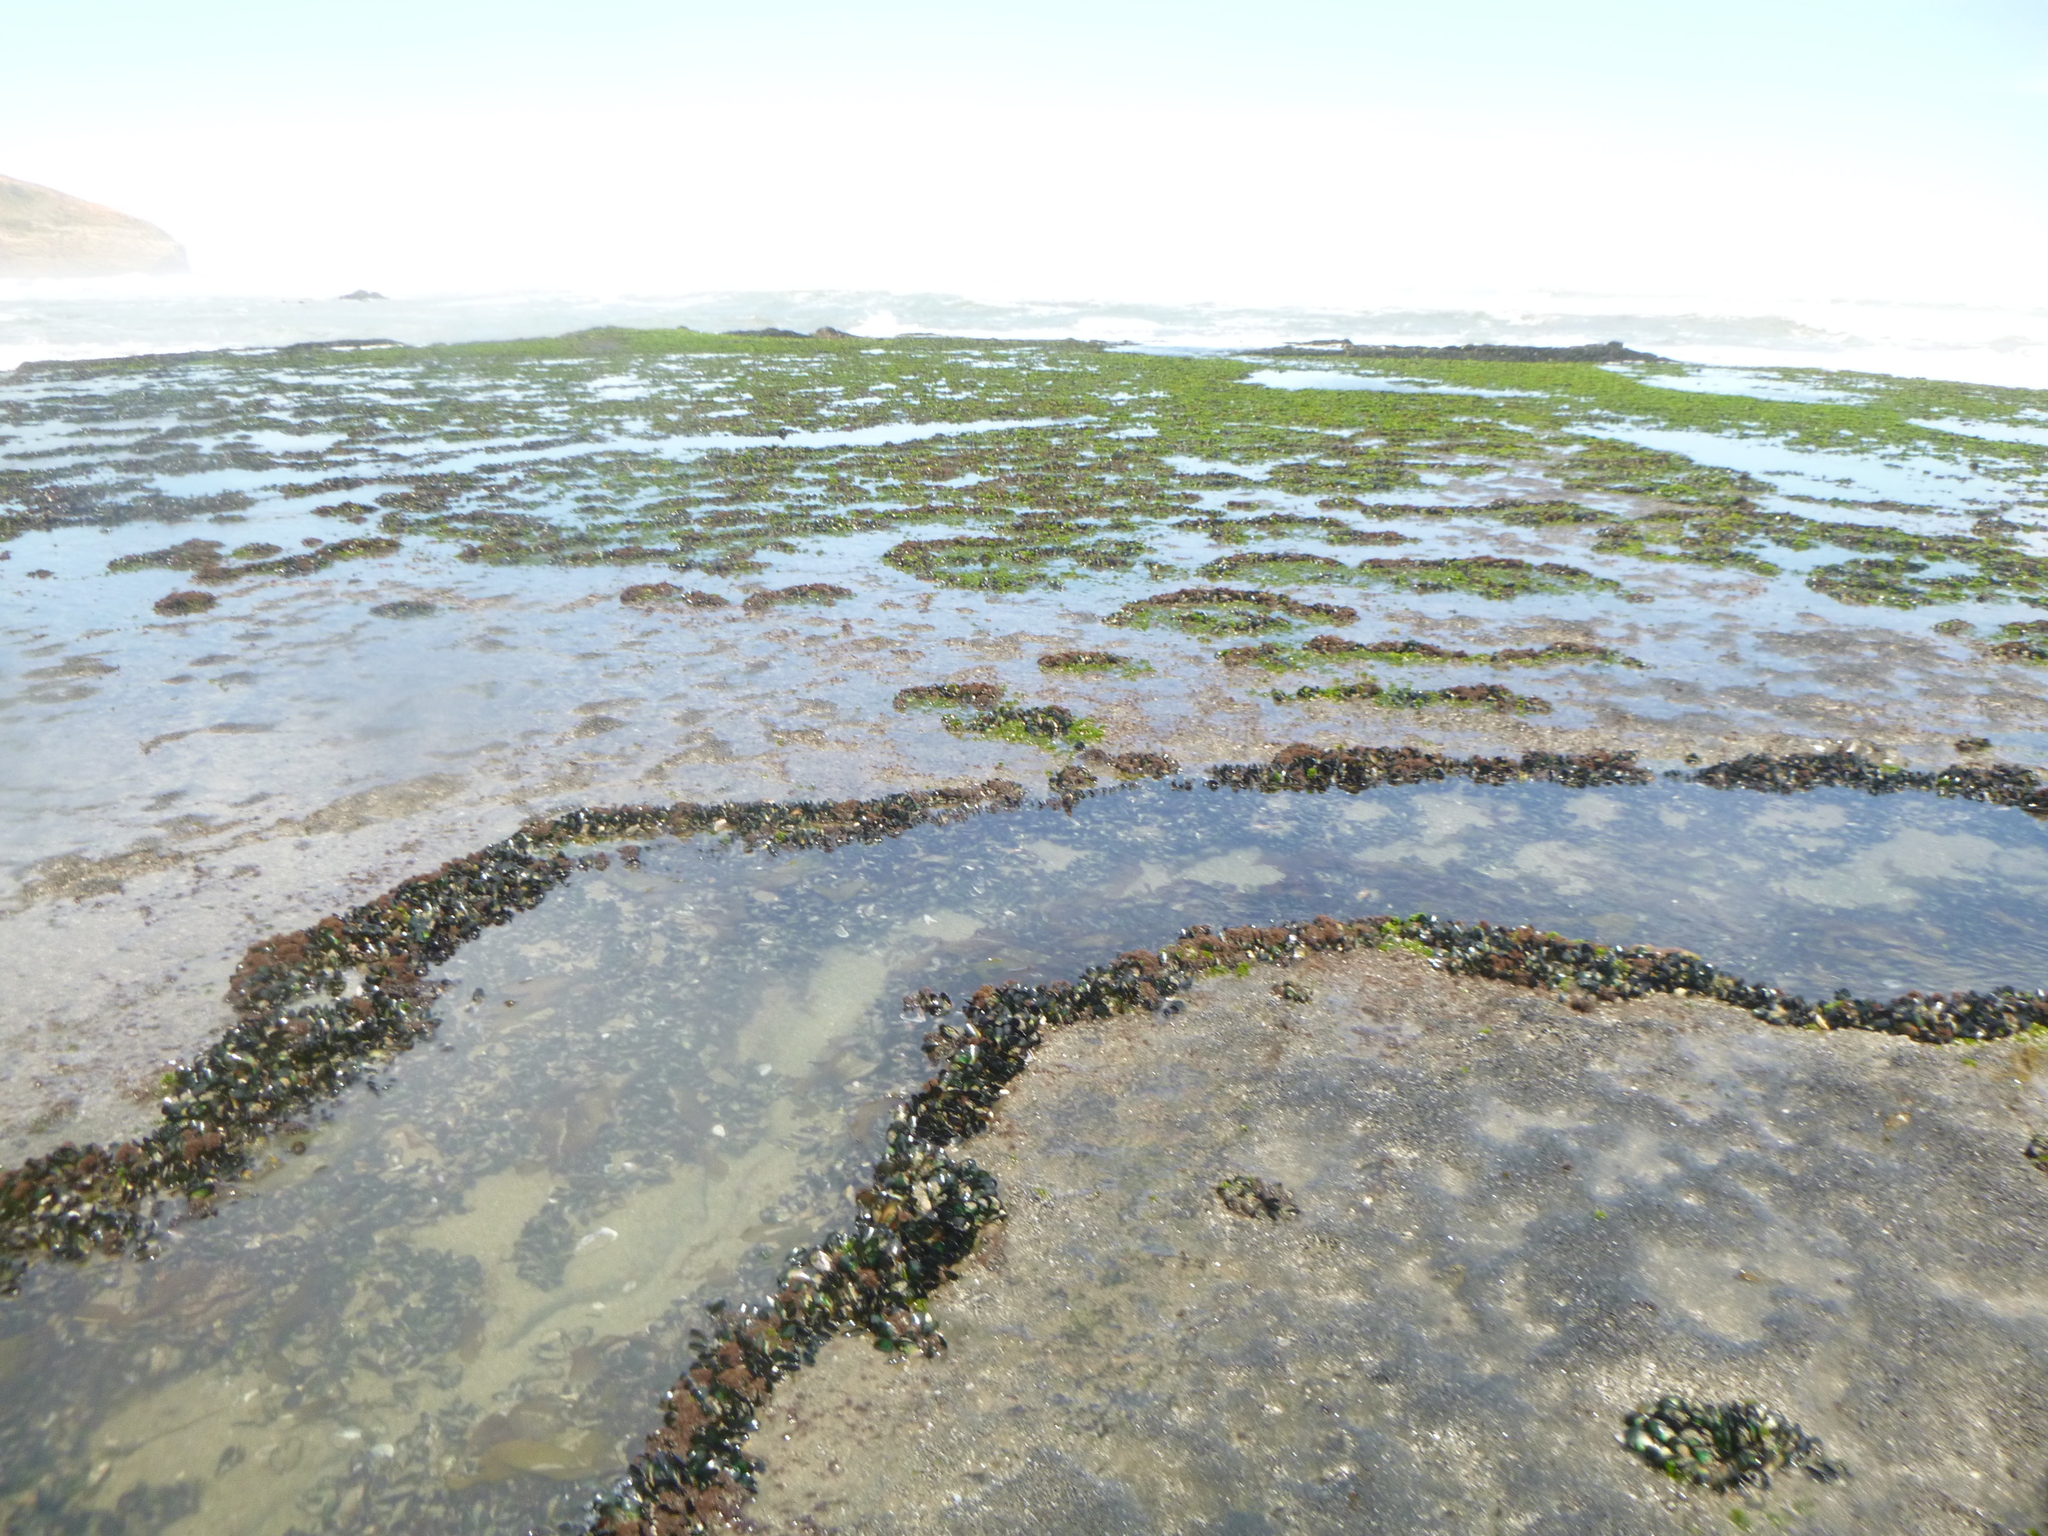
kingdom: Animalia
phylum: Mollusca
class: Bivalvia
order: Mytilida
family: Mytilidae
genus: Perna
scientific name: Perna canaliculus
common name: New zealand greenshelltm
